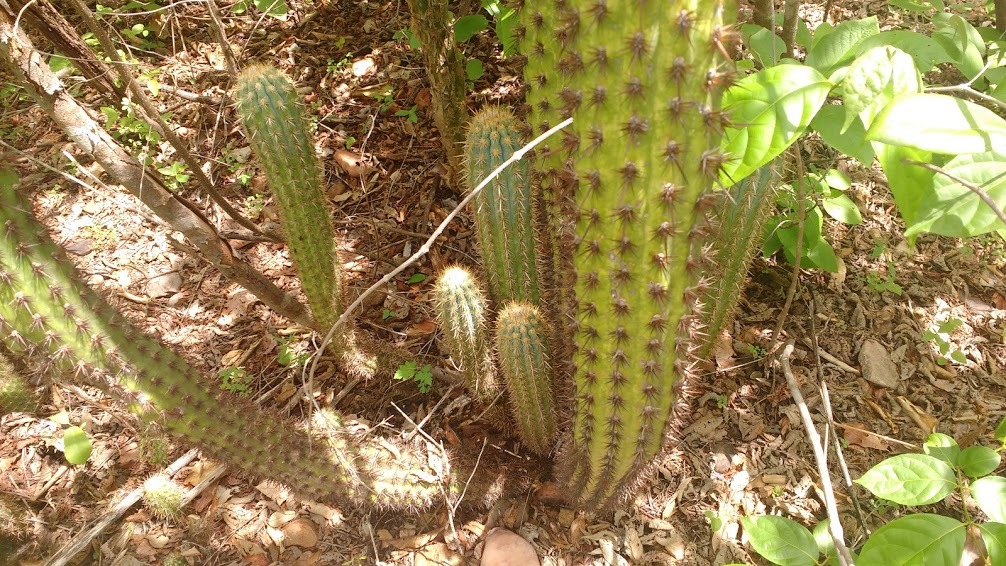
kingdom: Plantae
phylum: Tracheophyta
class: Magnoliopsida
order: Caryophyllales
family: Cactaceae
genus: Xiquexique
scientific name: Xiquexique gounellei
